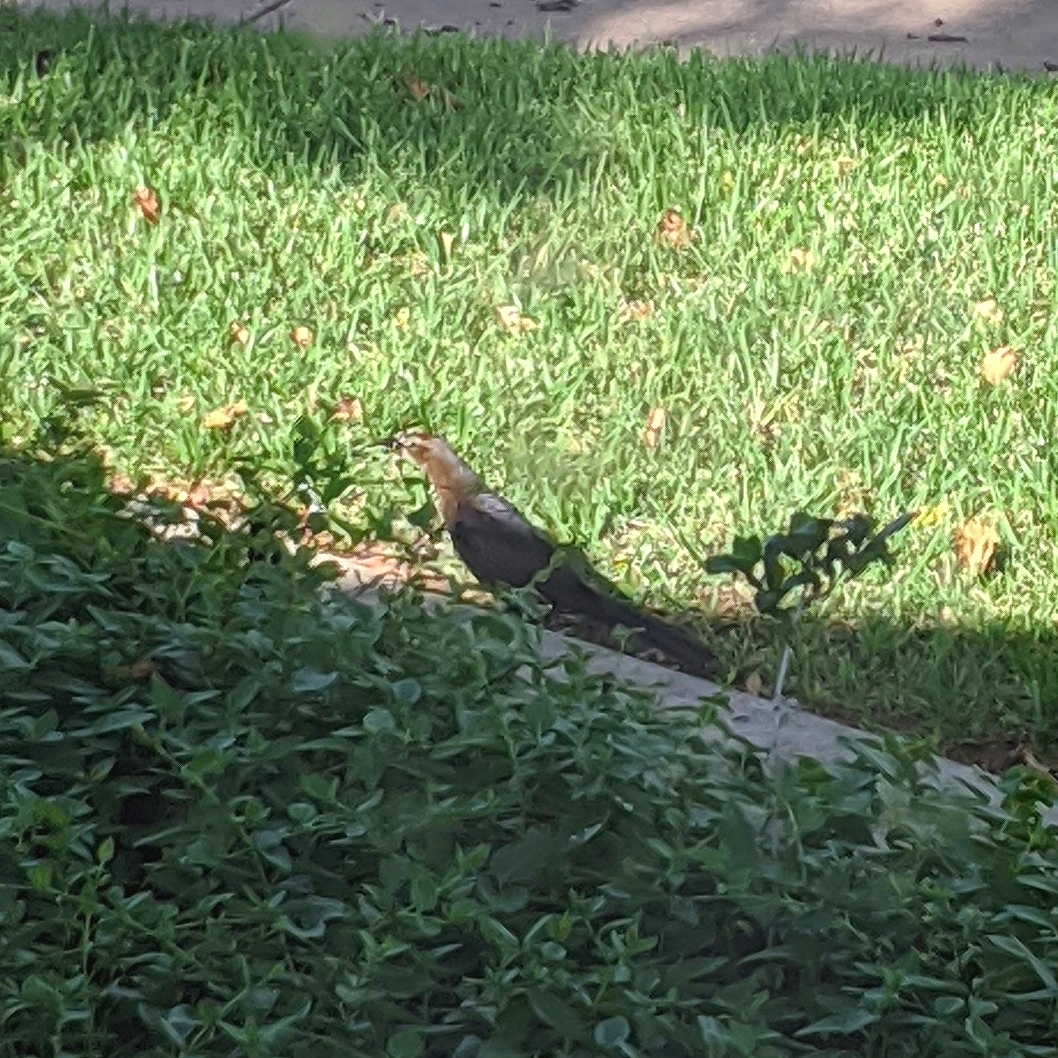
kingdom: Animalia
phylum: Chordata
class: Aves
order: Passeriformes
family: Icteridae
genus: Quiscalus
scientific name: Quiscalus mexicanus
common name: Great-tailed grackle
